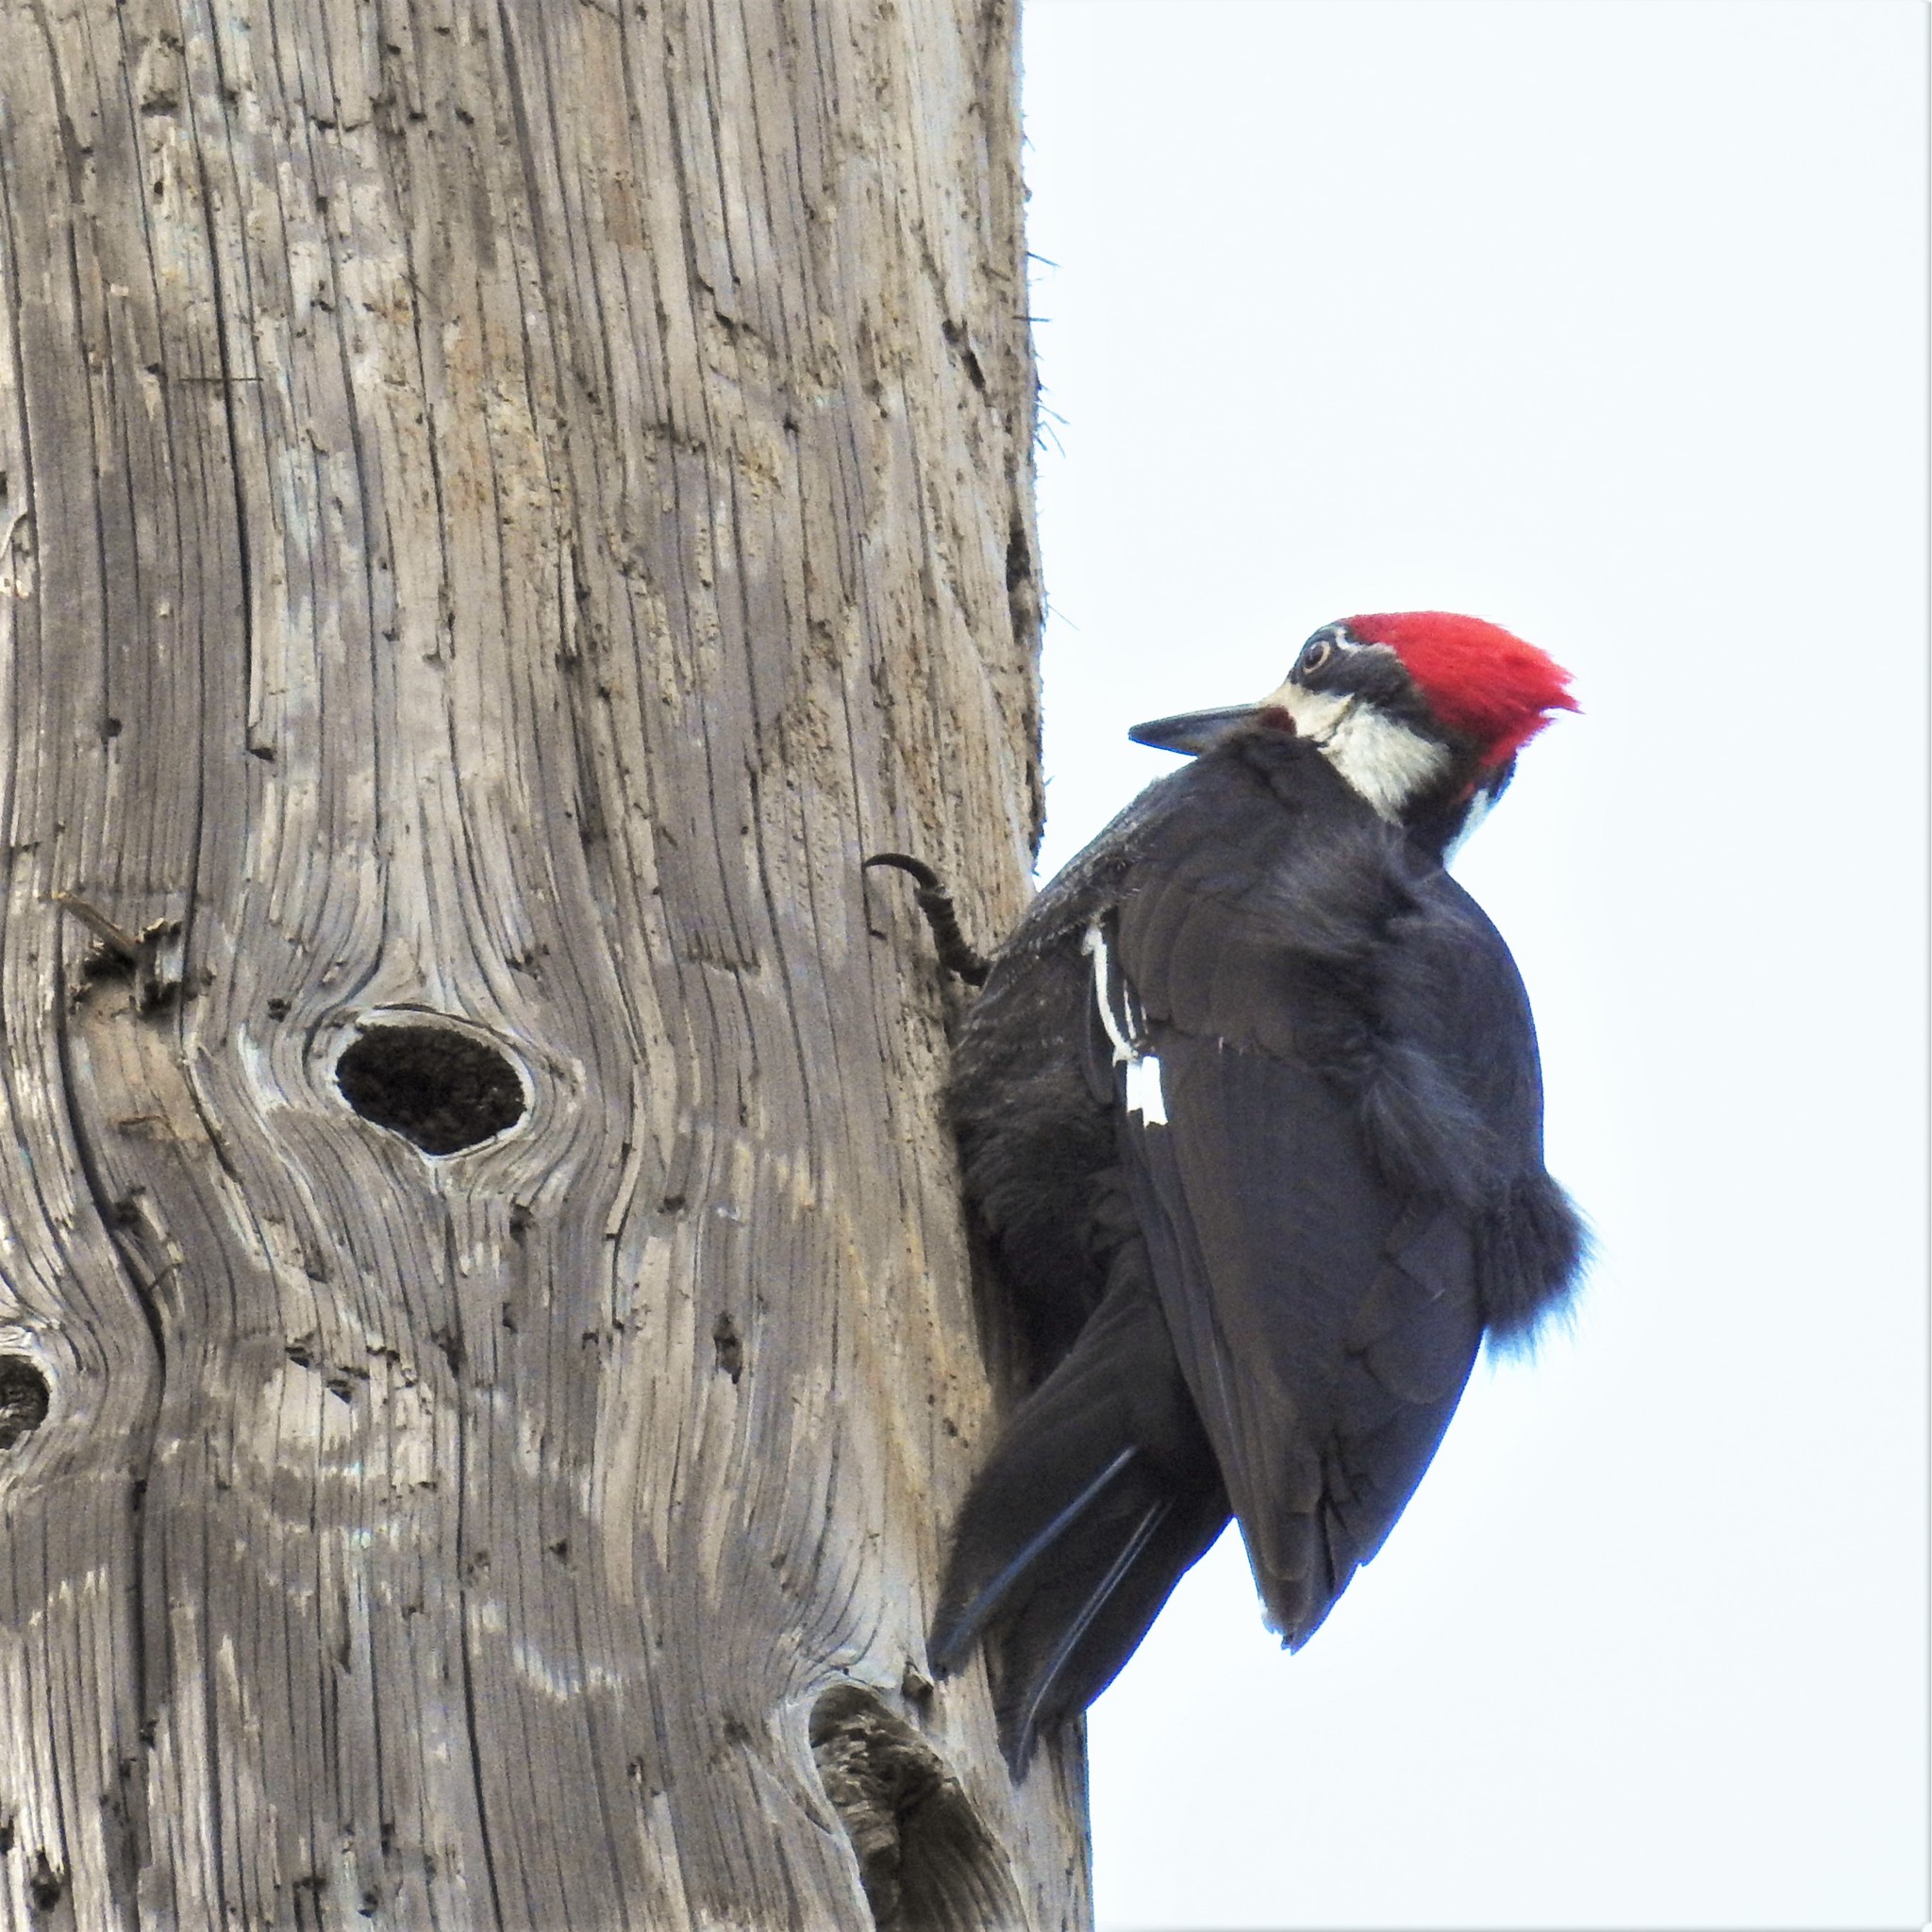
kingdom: Animalia
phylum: Chordata
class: Aves
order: Piciformes
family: Picidae
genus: Dryocopus
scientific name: Dryocopus pileatus
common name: Pileated woodpecker
